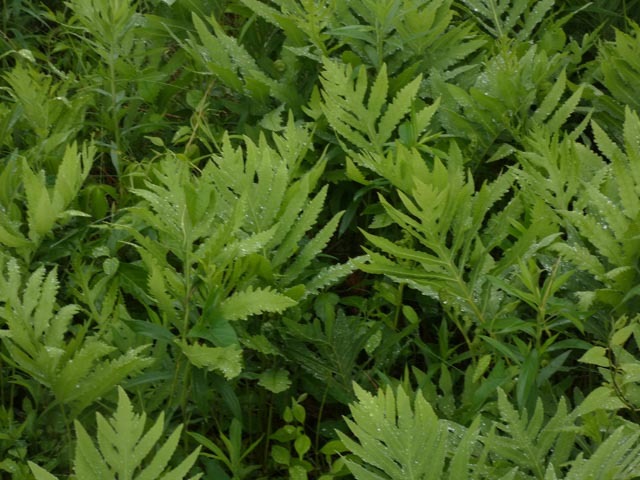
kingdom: Plantae
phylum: Tracheophyta
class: Polypodiopsida
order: Polypodiales
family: Onocleaceae
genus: Onoclea
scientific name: Onoclea sensibilis
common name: Sensitive fern
